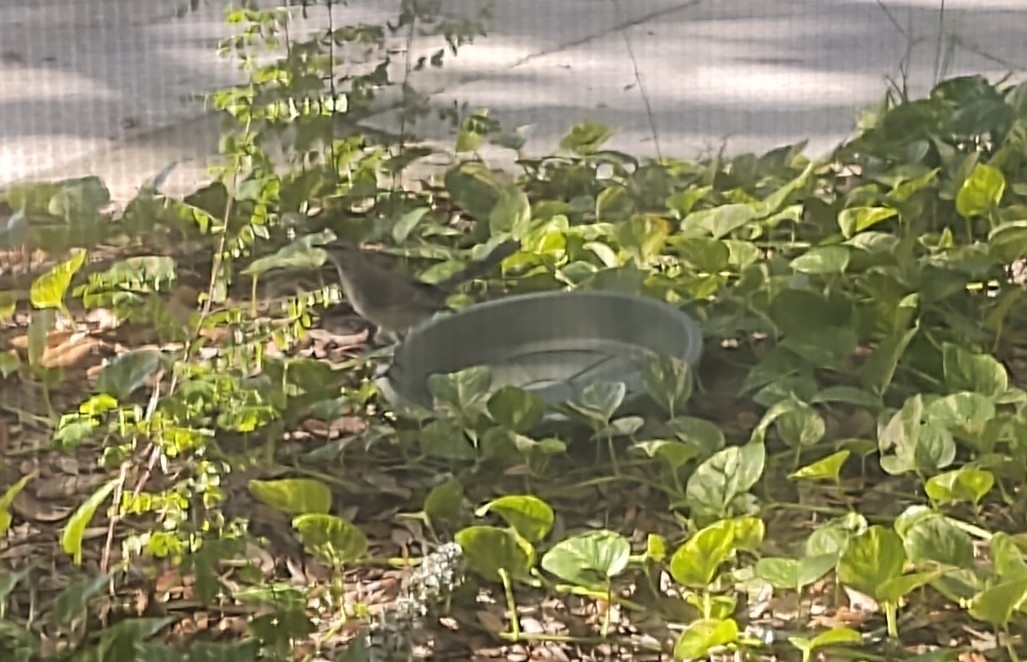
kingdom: Animalia
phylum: Chordata
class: Aves
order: Passeriformes
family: Mimidae
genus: Mimus
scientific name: Mimus polyglottos
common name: Northern mockingbird
